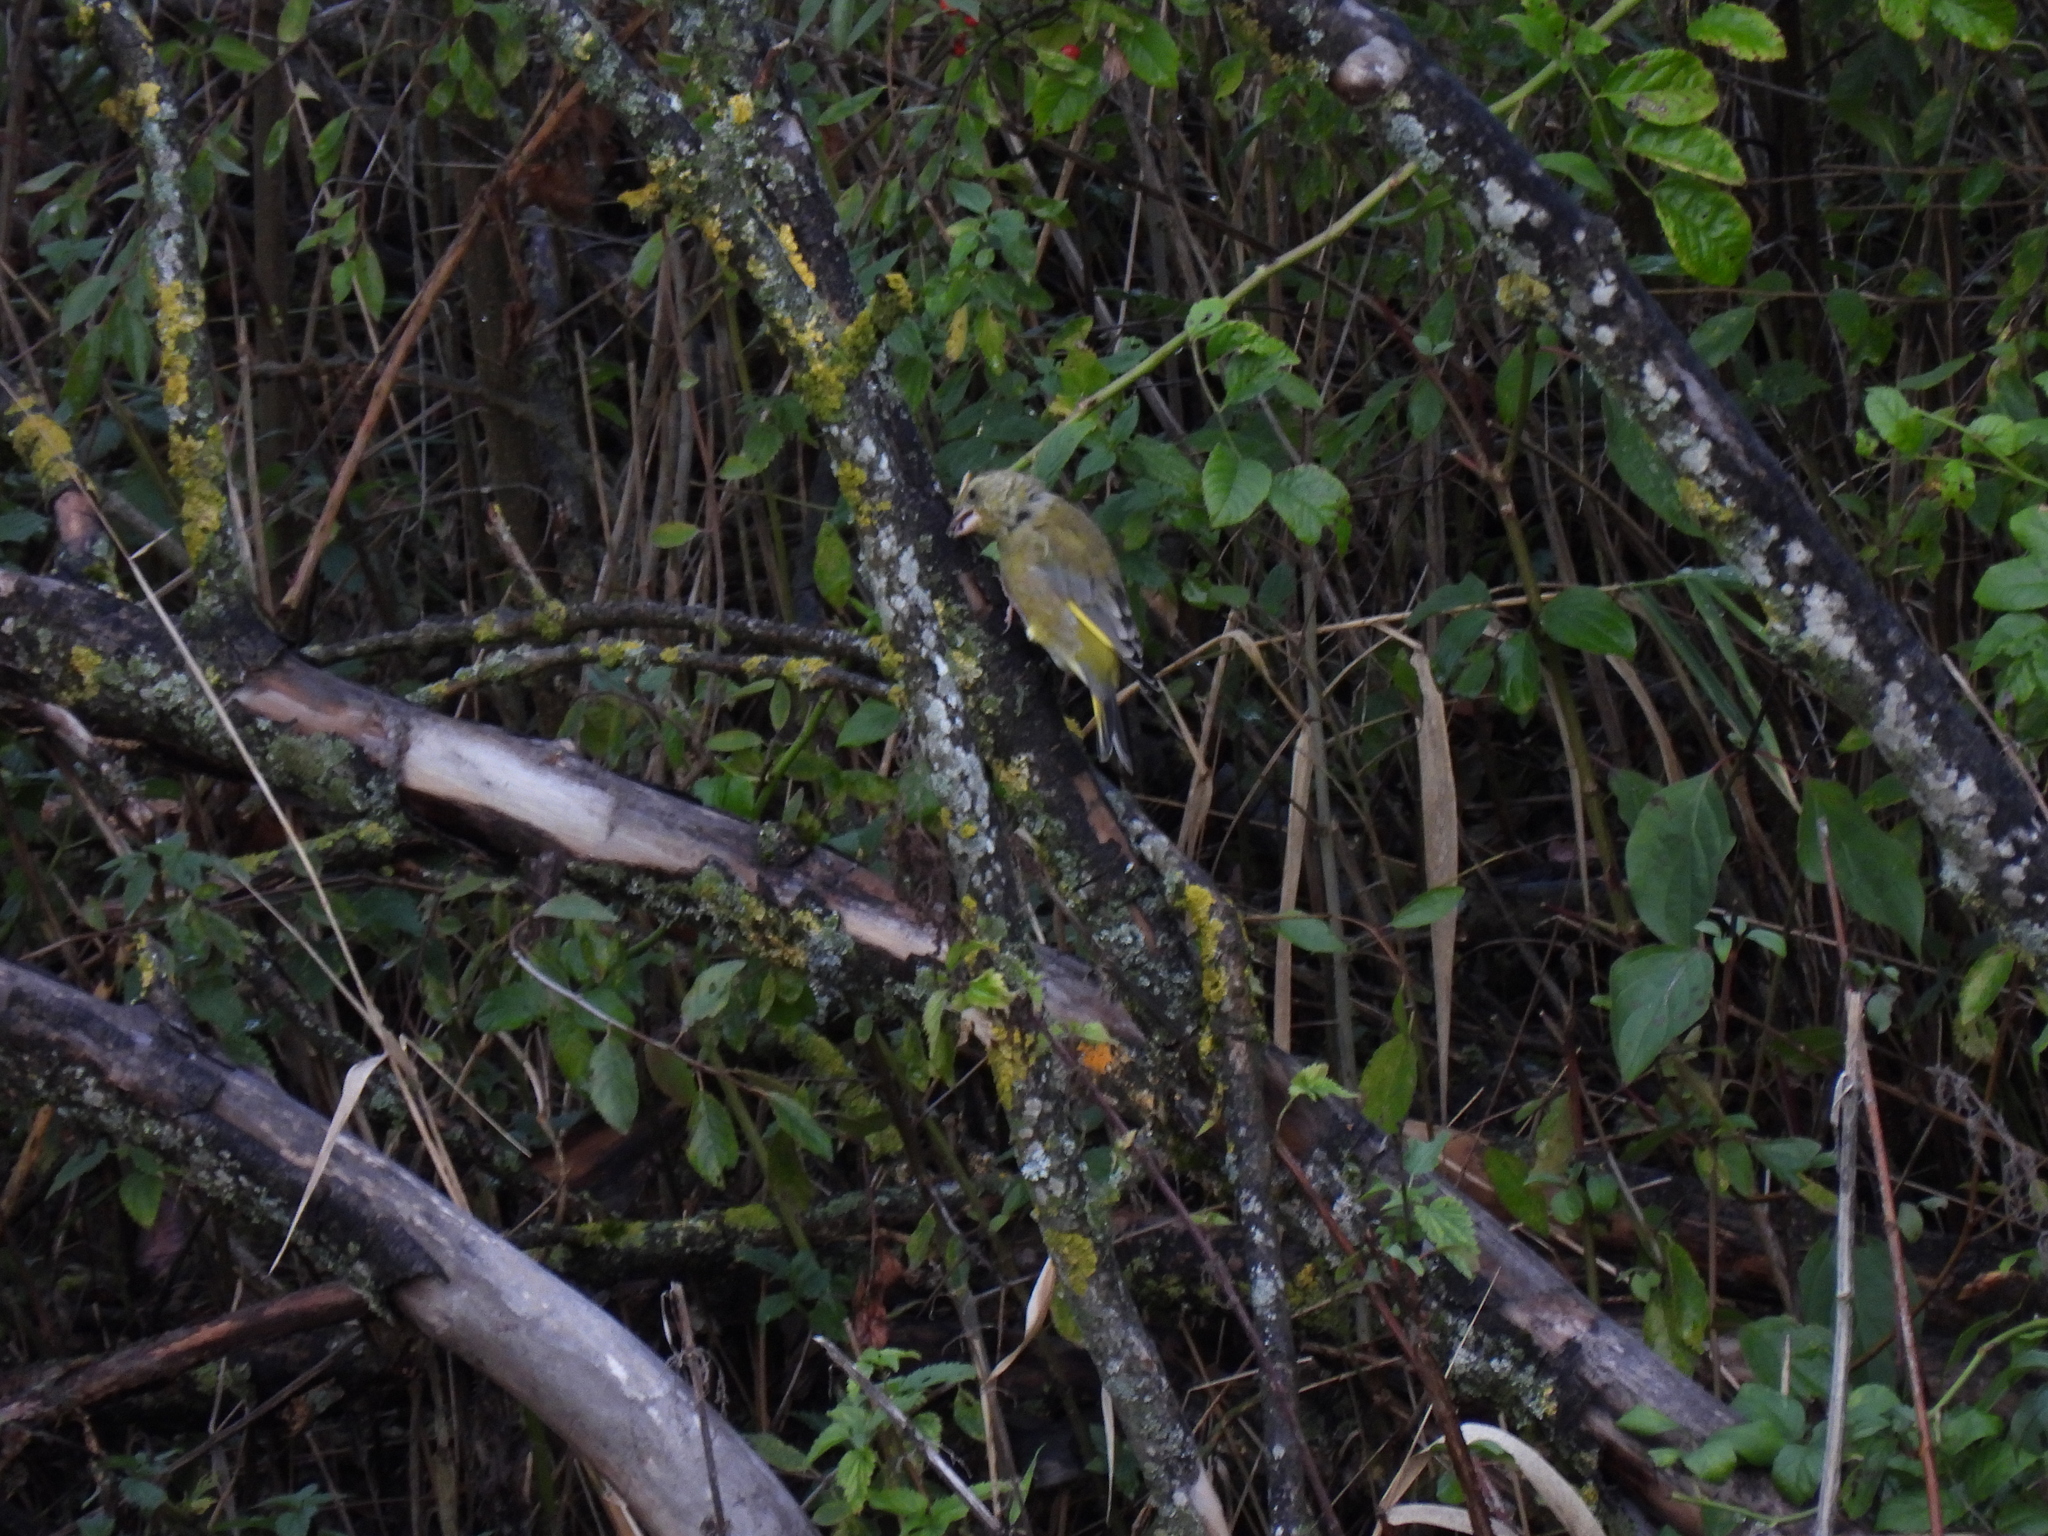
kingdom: Plantae
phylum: Tracheophyta
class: Liliopsida
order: Poales
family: Poaceae
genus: Chloris
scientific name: Chloris chloris
